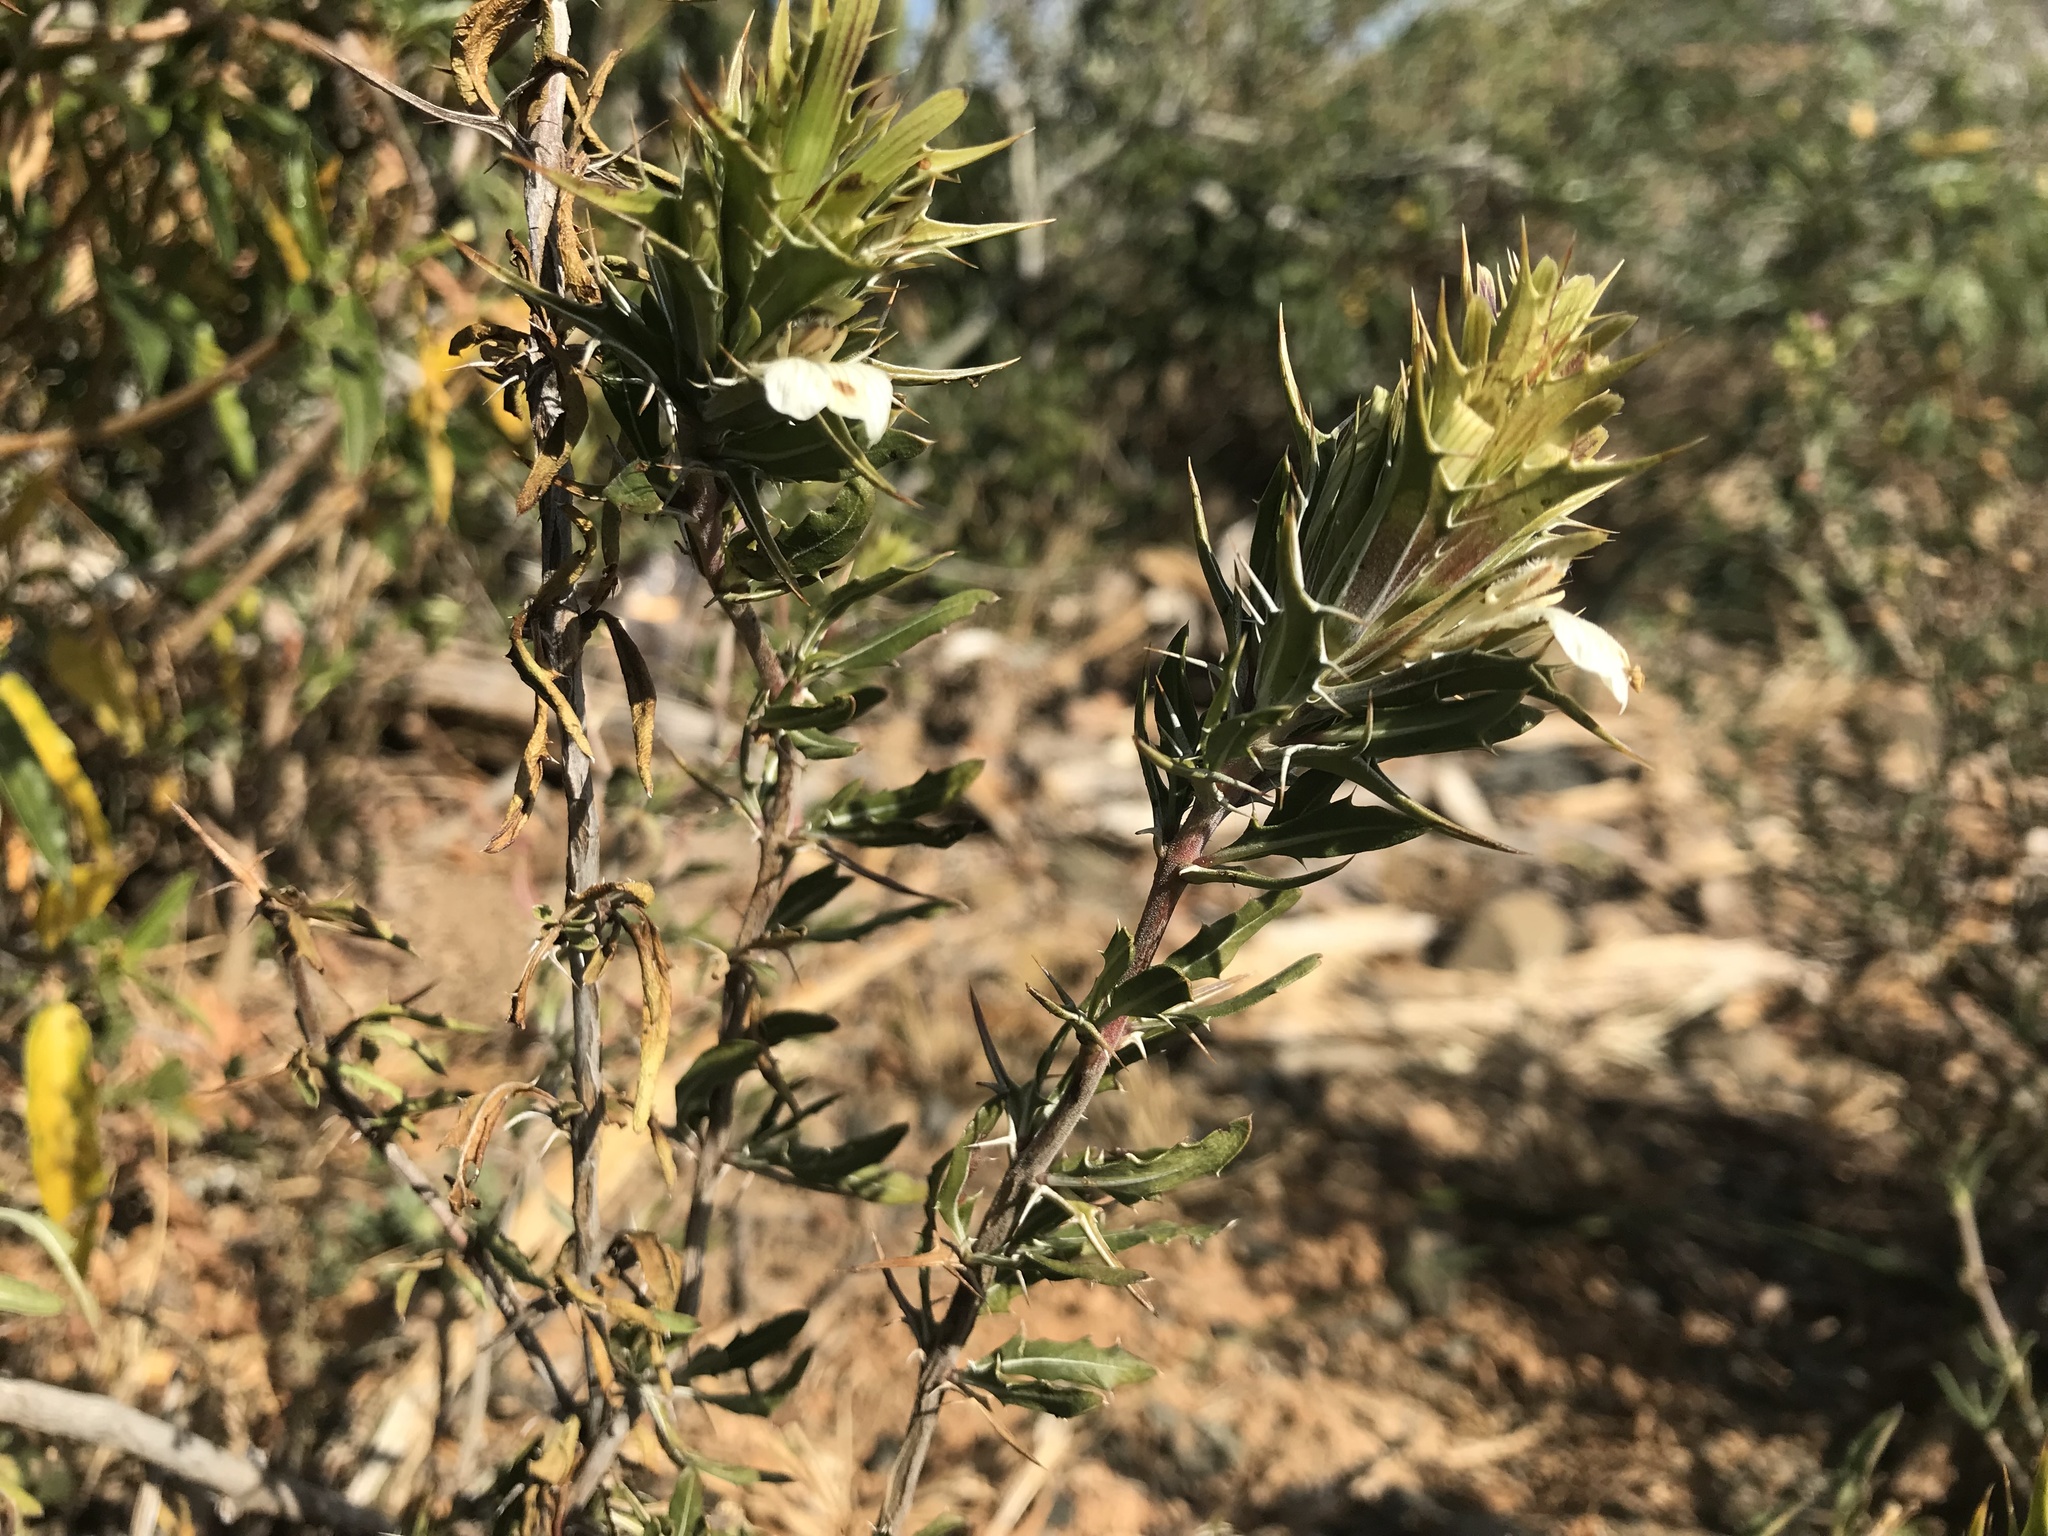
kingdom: Plantae
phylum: Tracheophyta
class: Magnoliopsida
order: Lamiales
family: Acanthaceae
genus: Blepharis
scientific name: Blepharis capensis
